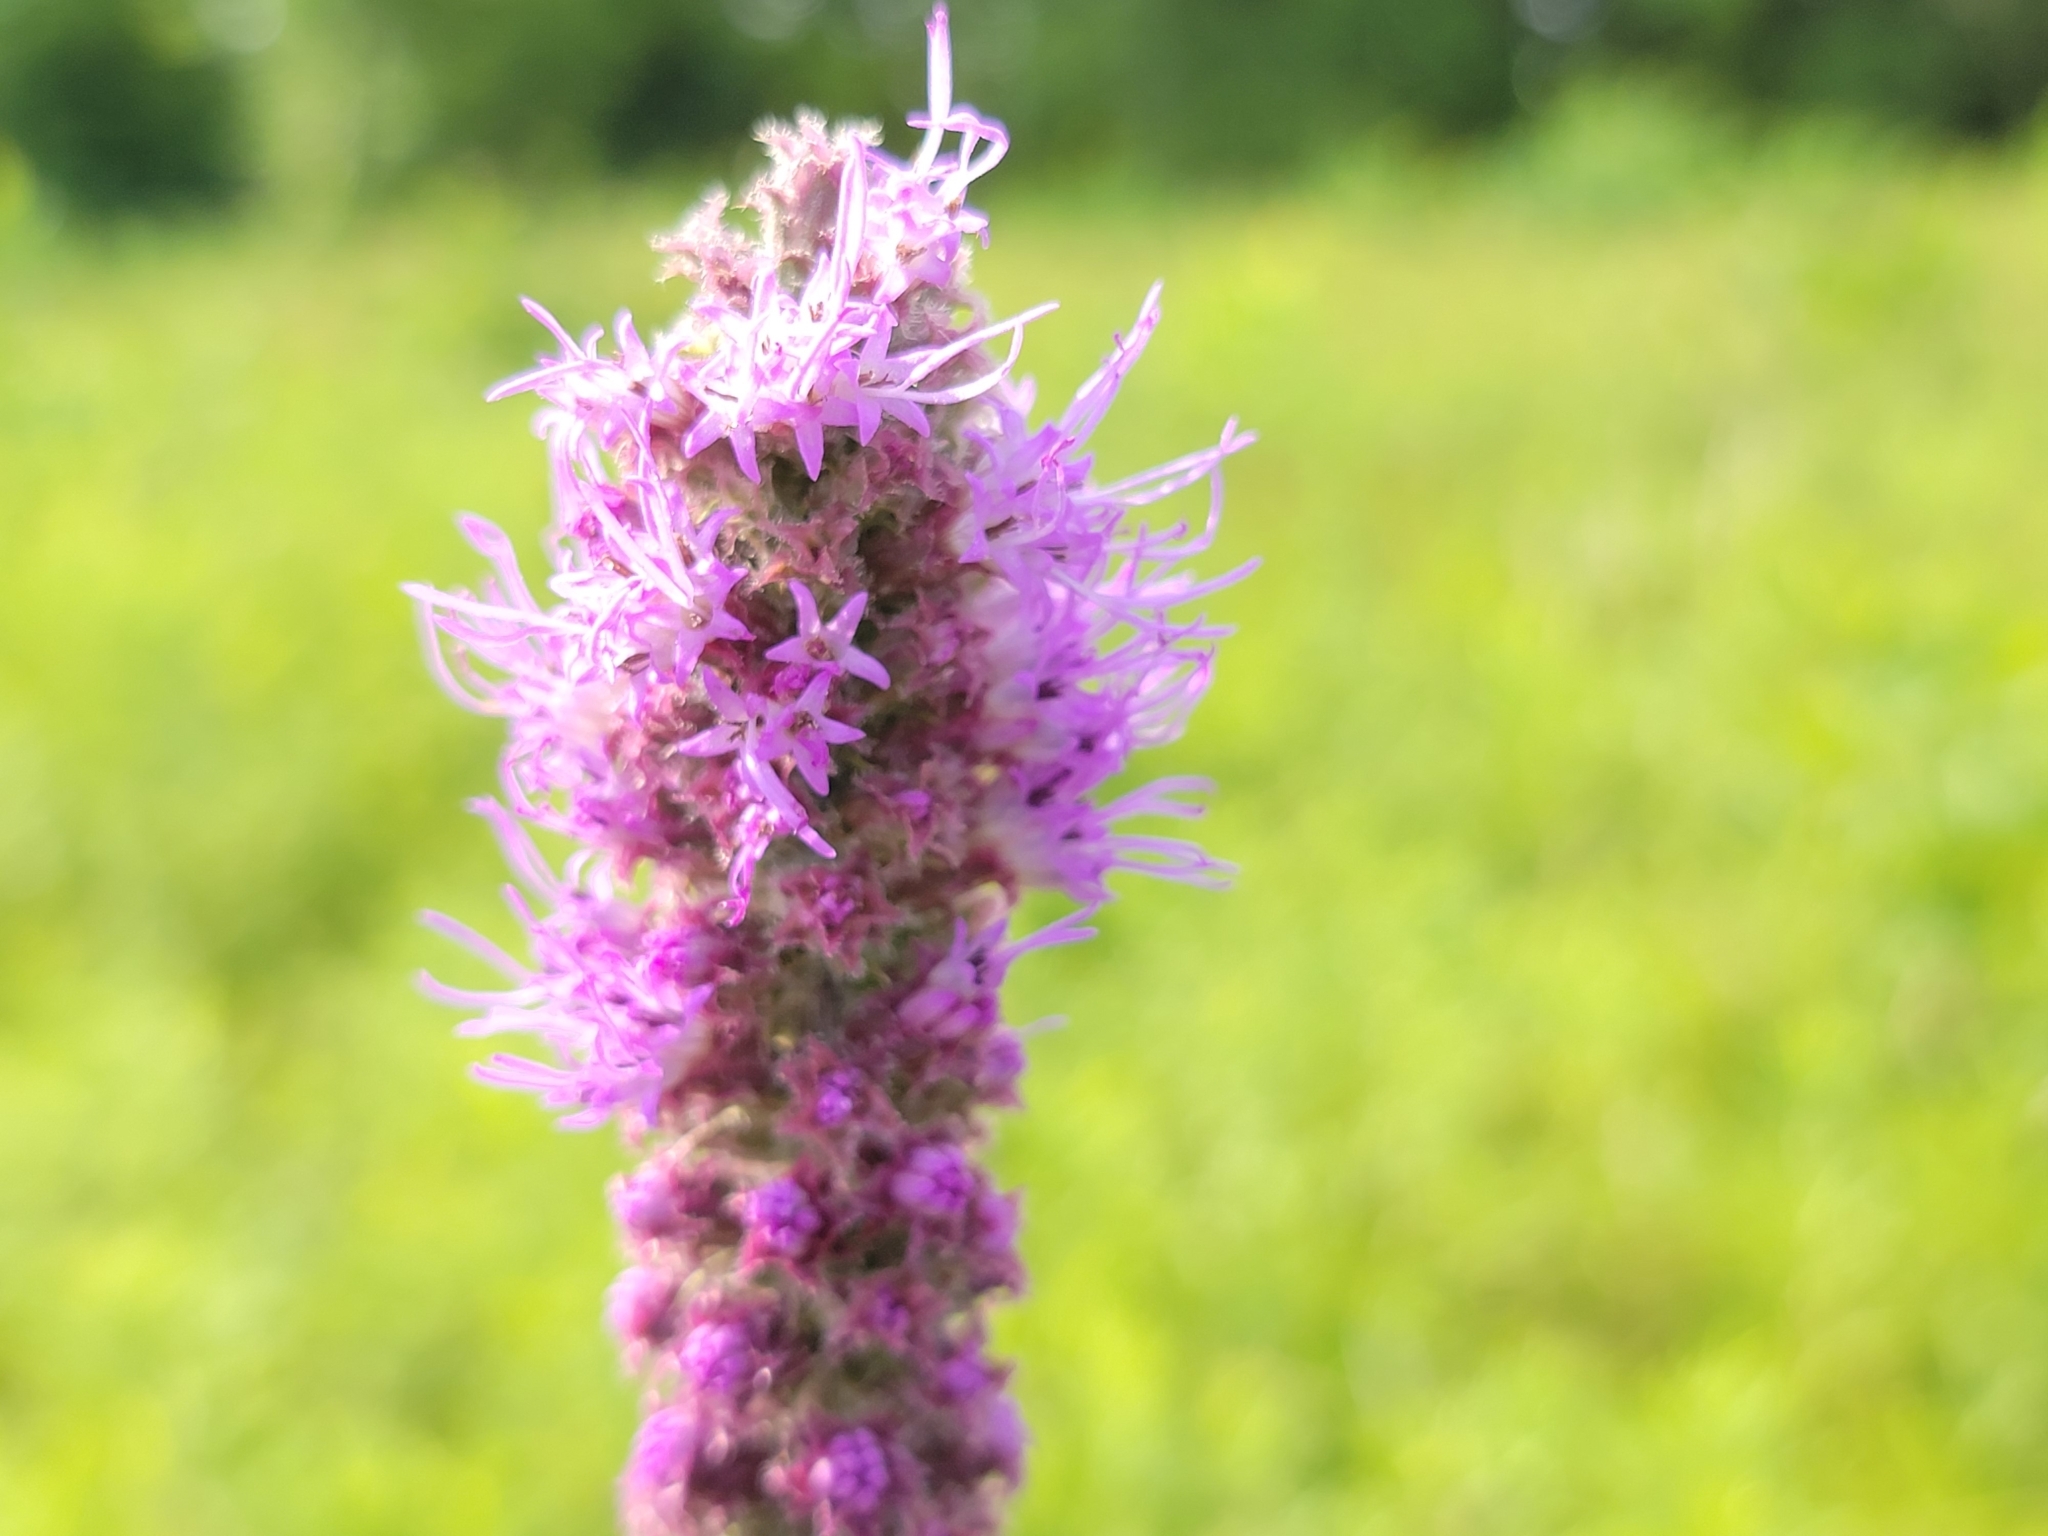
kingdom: Plantae
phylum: Tracheophyta
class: Magnoliopsida
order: Asterales
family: Asteraceae
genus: Liatris
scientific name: Liatris pycnostachya
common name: Cattail gayfeather
